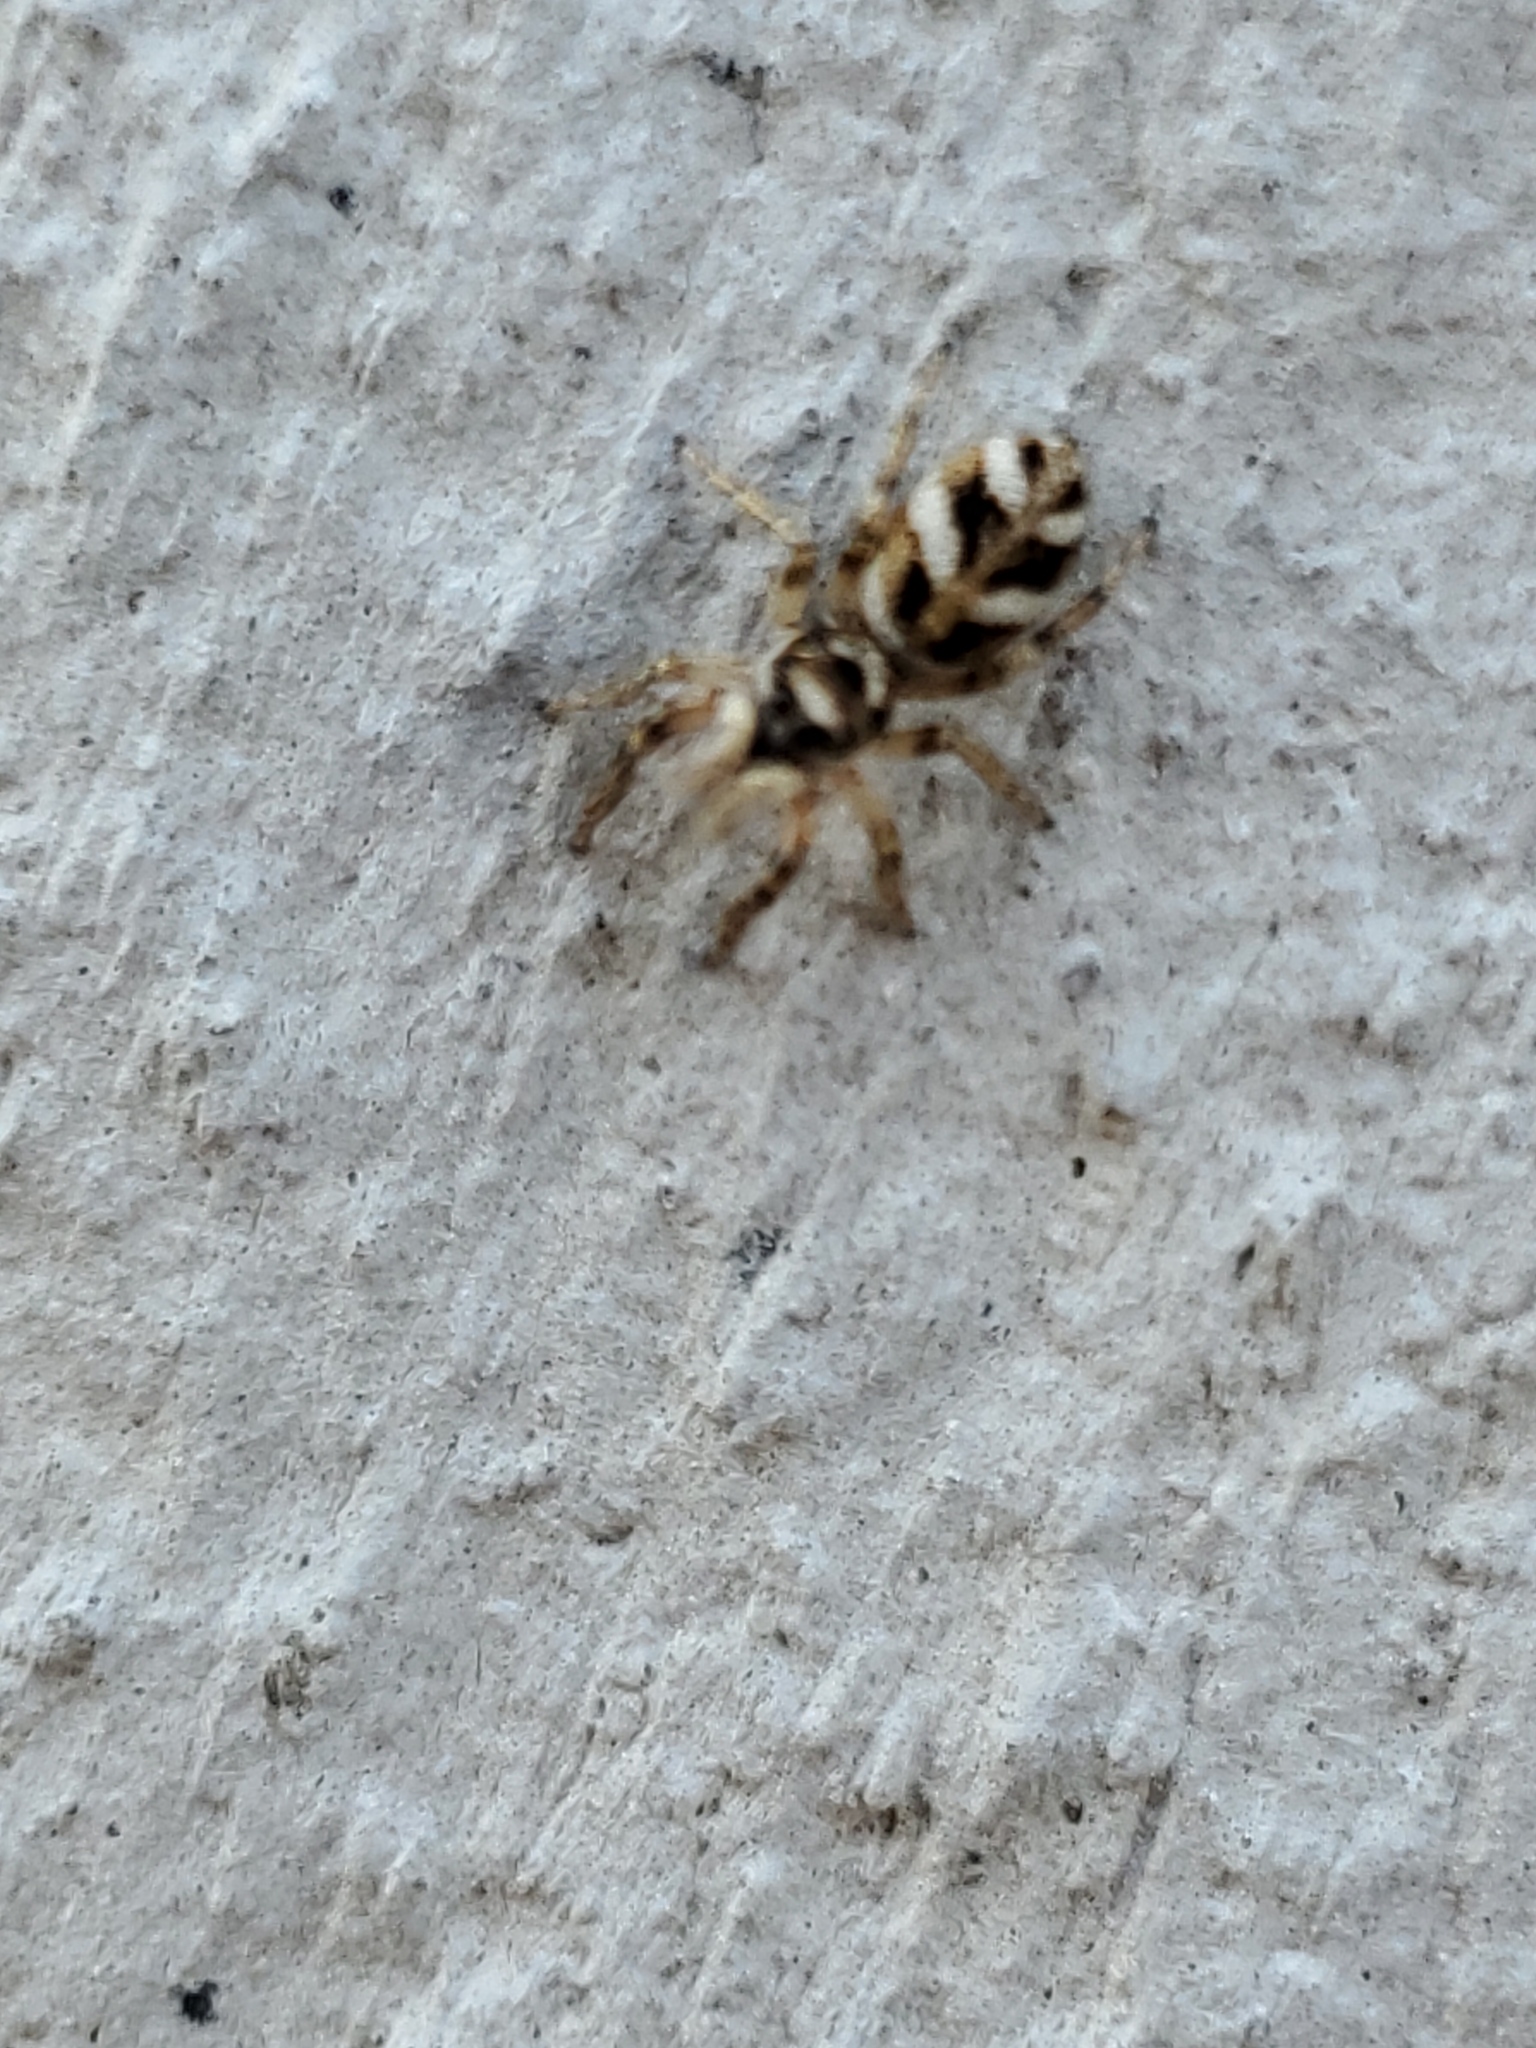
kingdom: Animalia
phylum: Arthropoda
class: Arachnida
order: Araneae
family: Salticidae
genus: Salticus
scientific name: Salticus scenicus
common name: Zebra jumper
